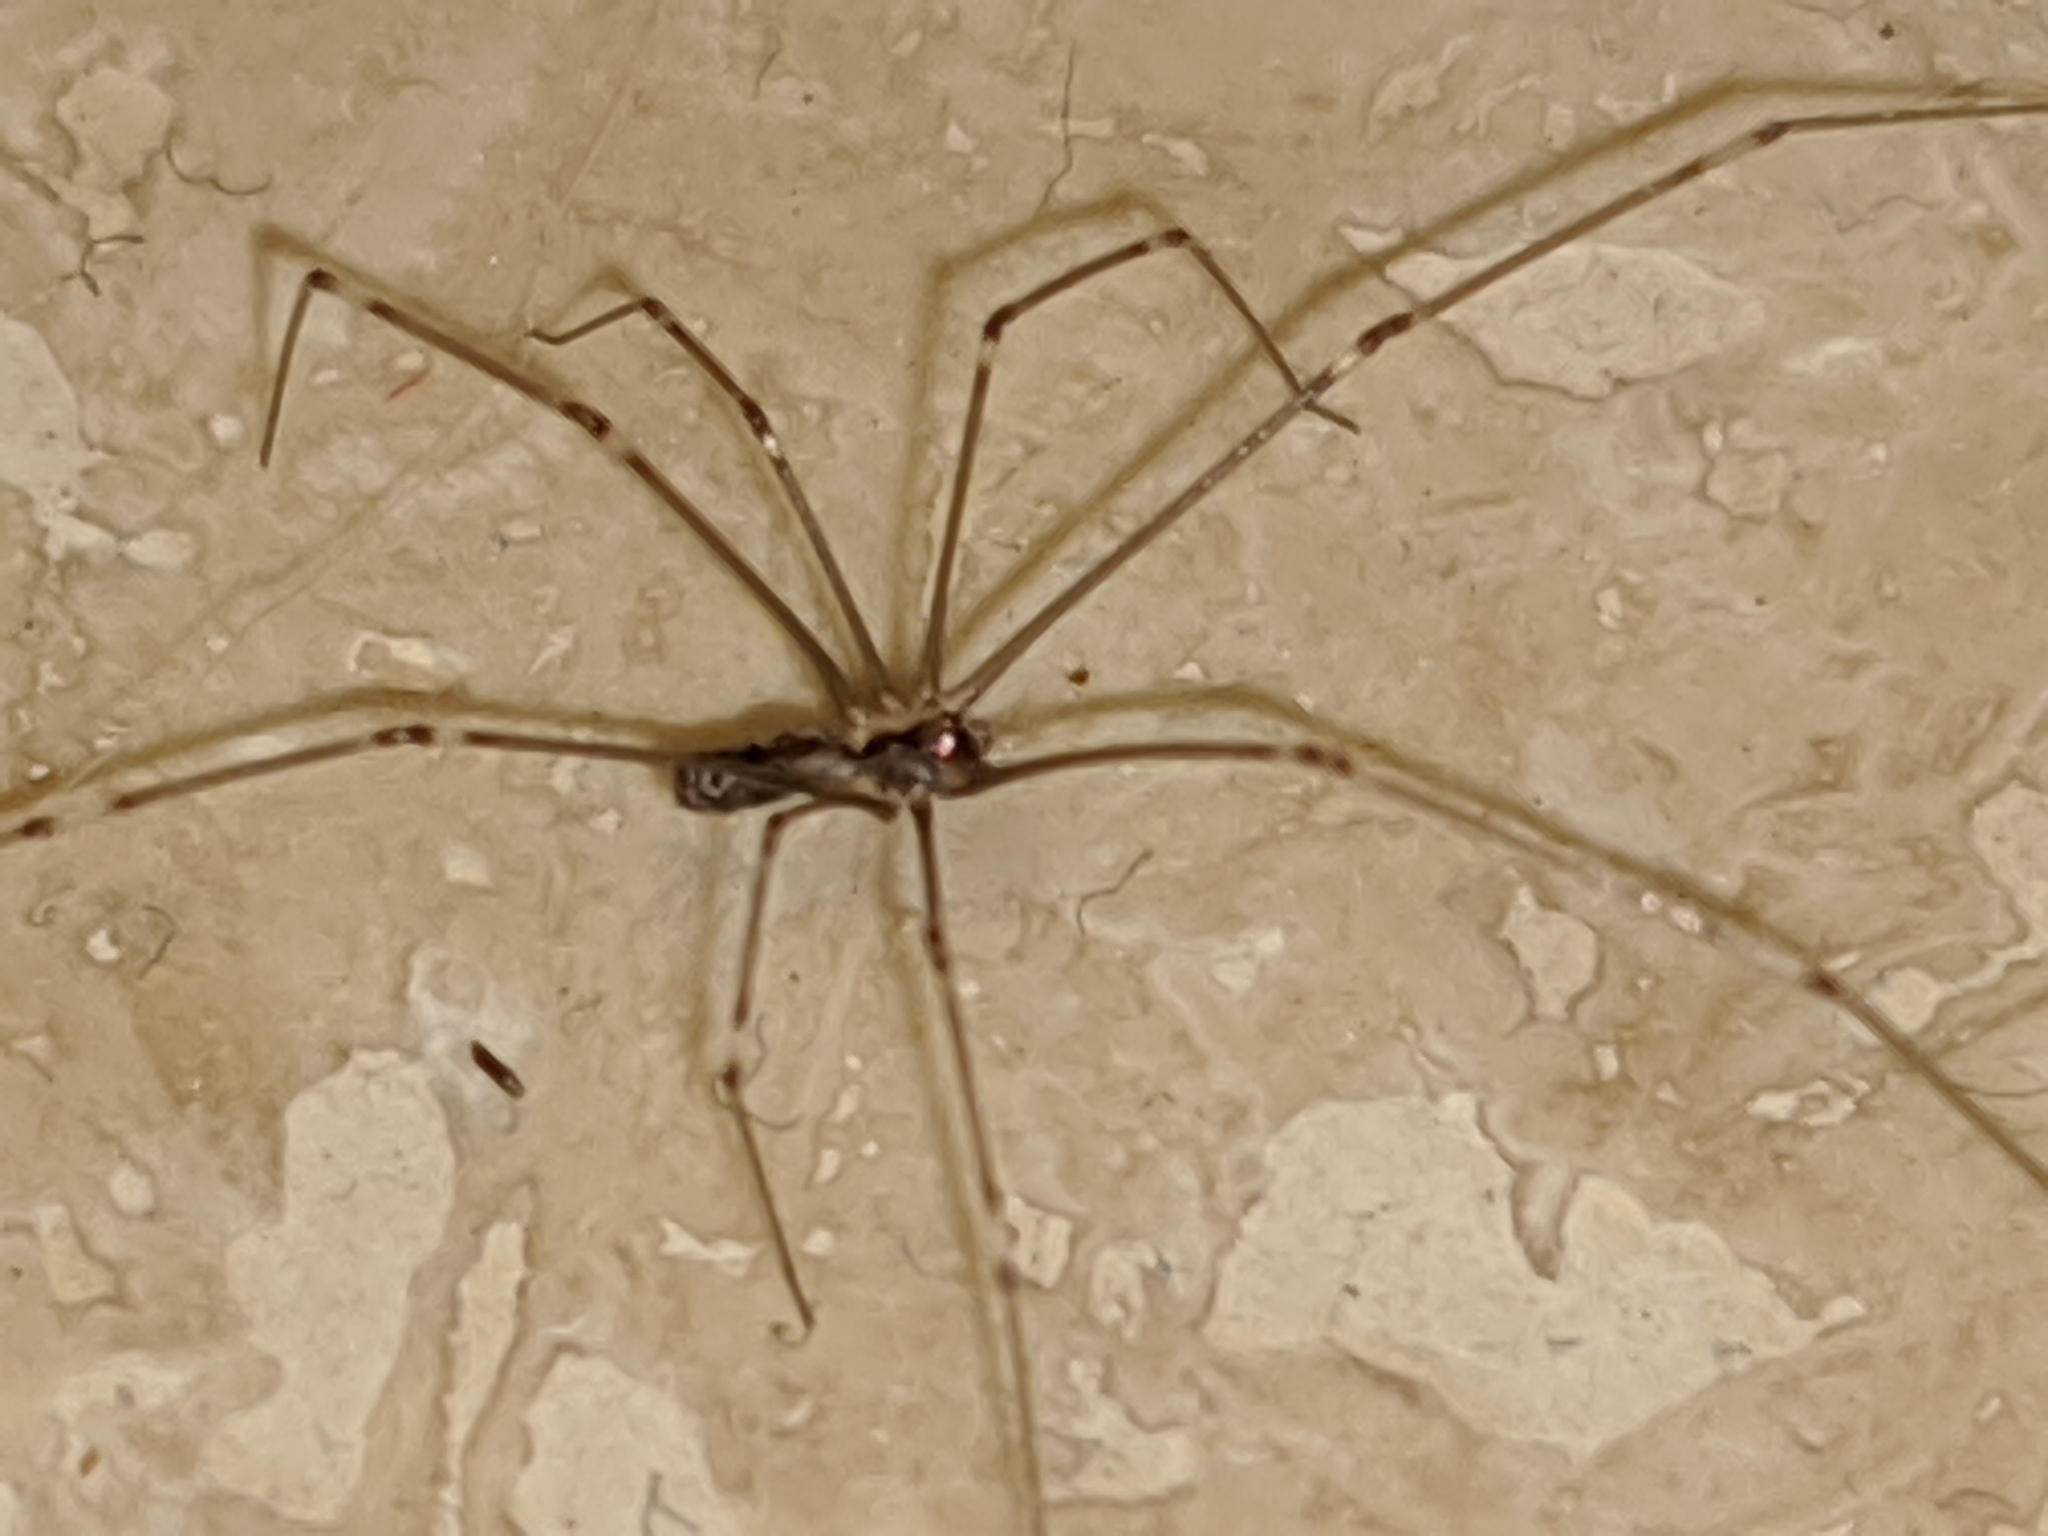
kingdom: Animalia
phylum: Arthropoda
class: Arachnida
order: Araneae
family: Pholcidae
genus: Pholcus
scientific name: Pholcus phalangioides
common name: Longbodied cellar spider
